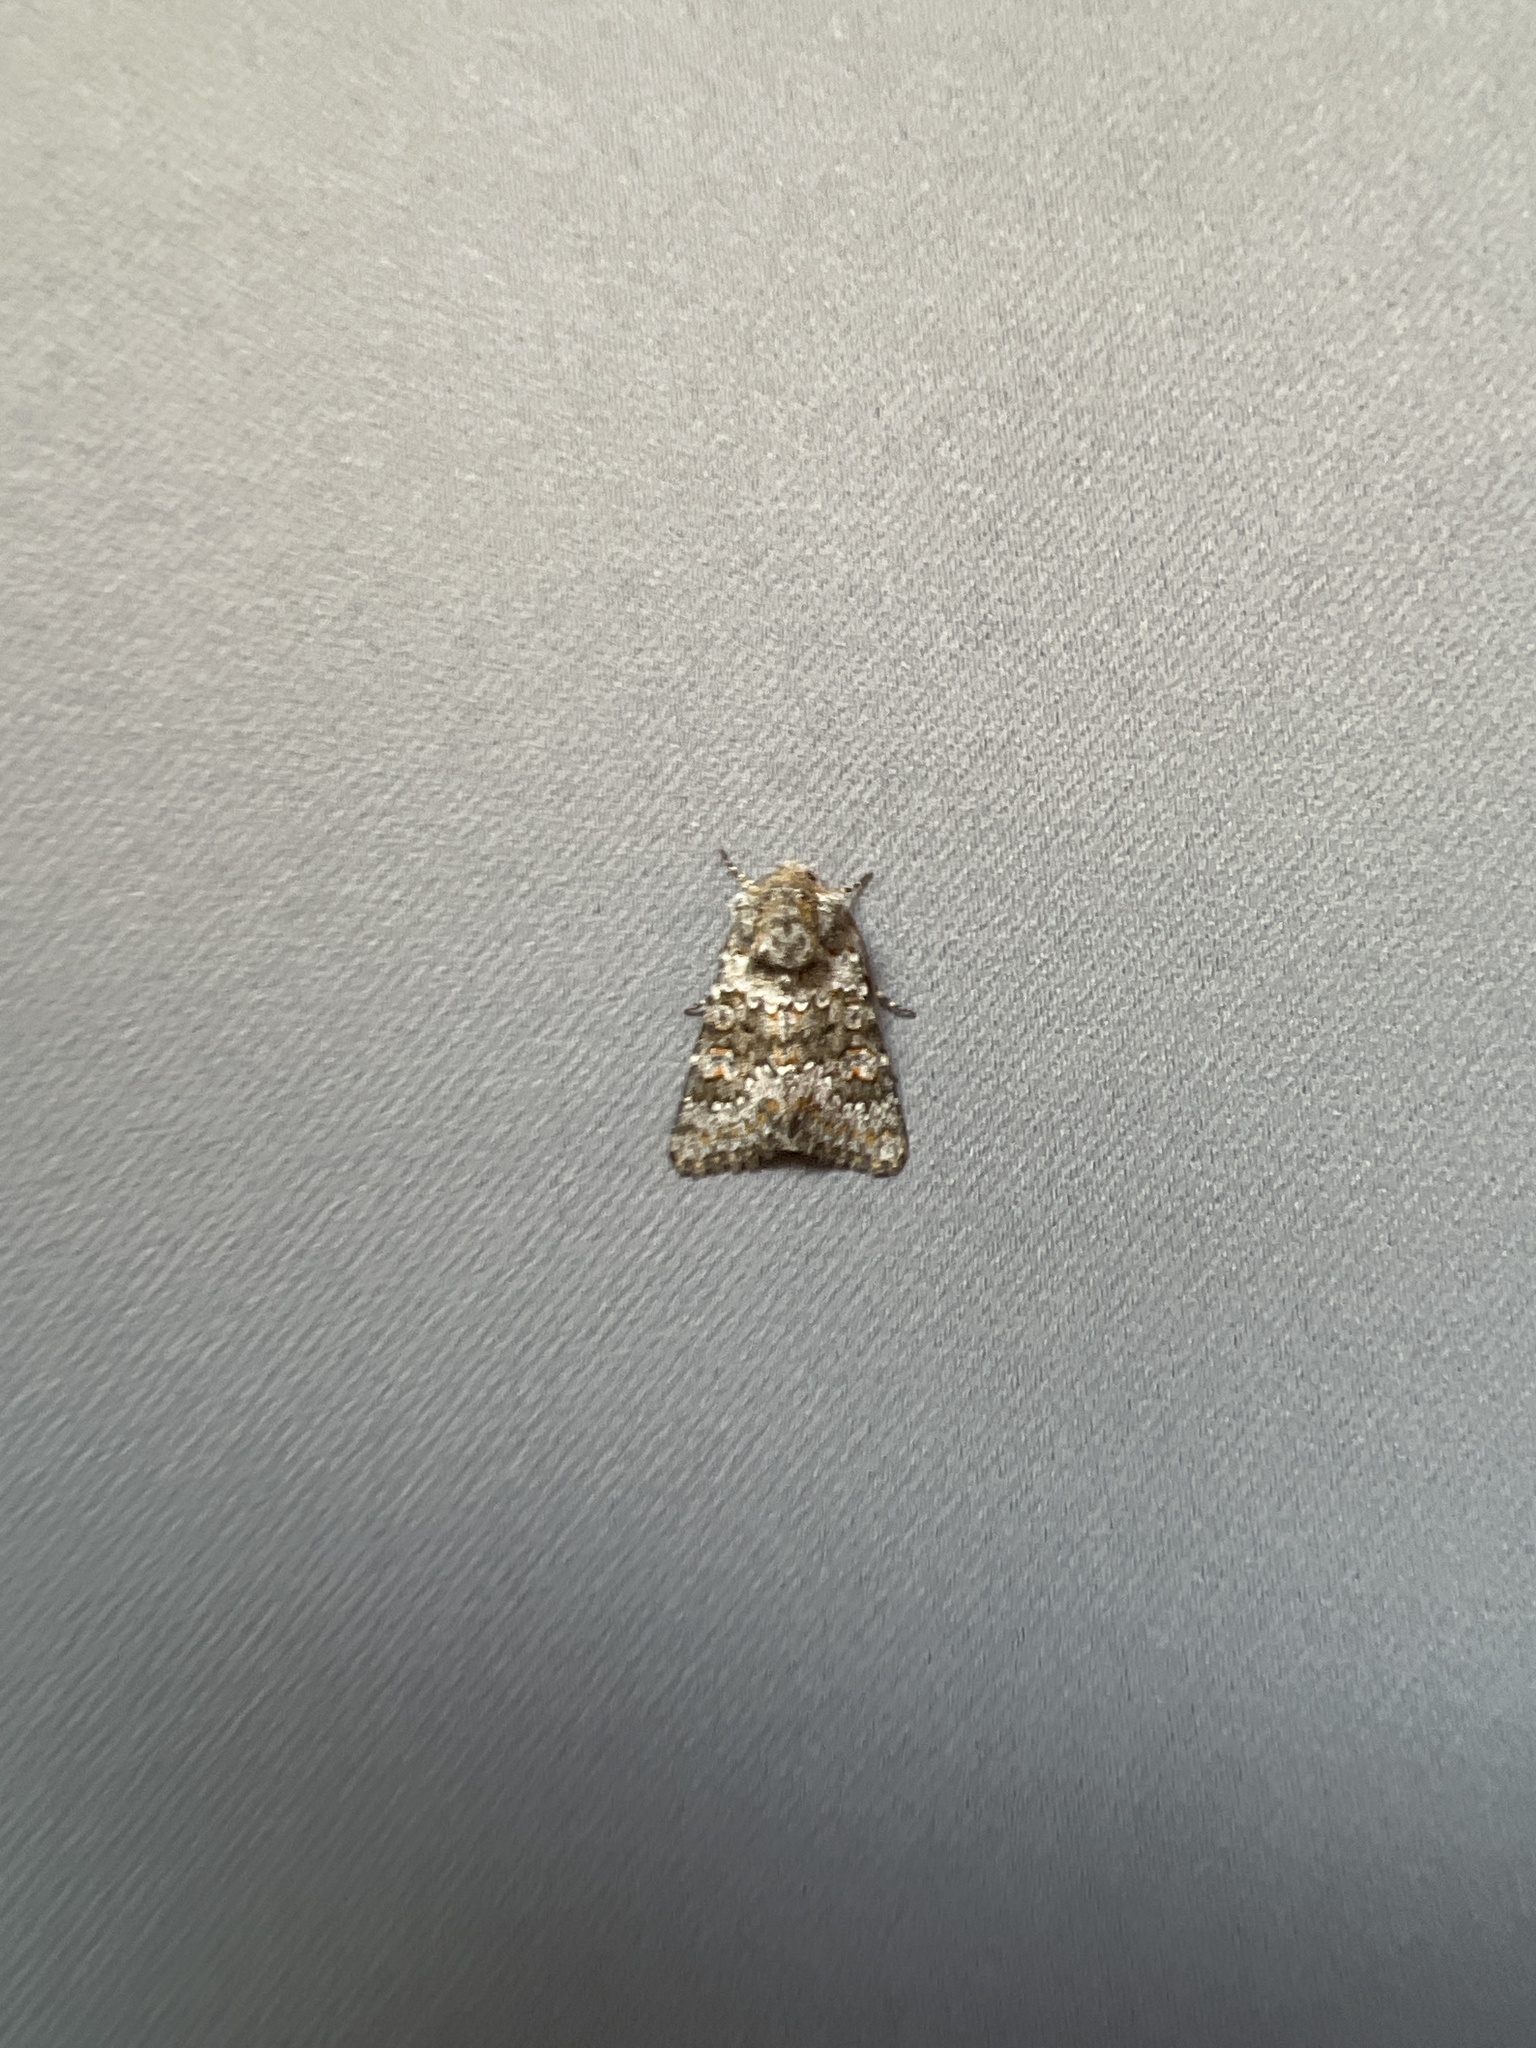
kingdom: Animalia
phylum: Arthropoda
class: Insecta
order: Lepidoptera
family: Noctuidae
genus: Hecatera
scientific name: Hecatera dysodea
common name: Small ranunculus
